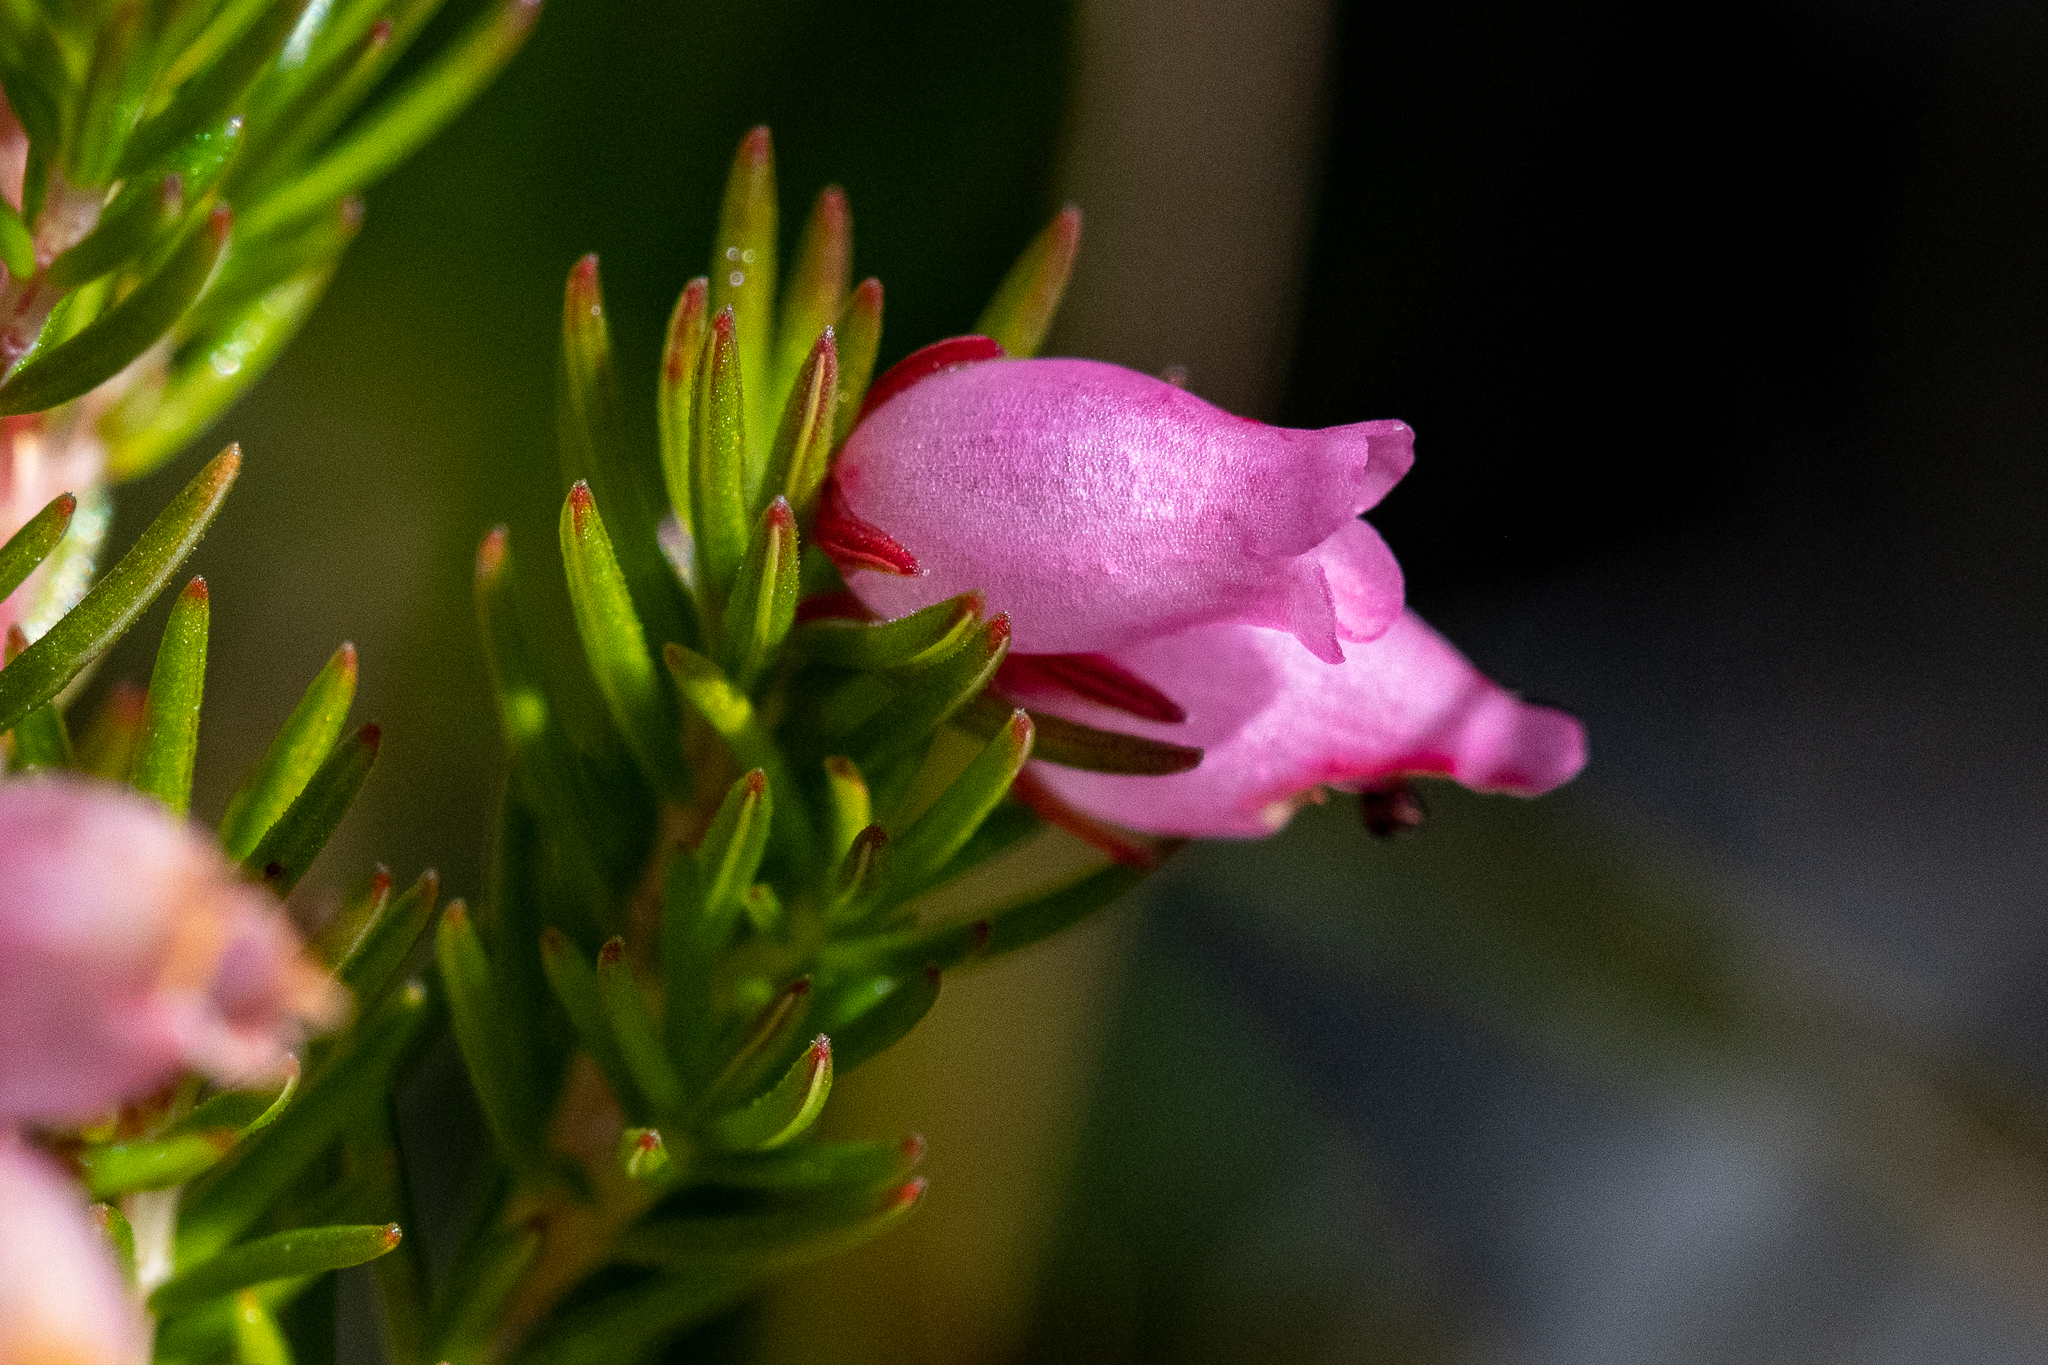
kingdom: Plantae
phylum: Tracheophyta
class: Magnoliopsida
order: Ericales
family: Ericaceae
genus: Erica
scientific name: Erica tenella
